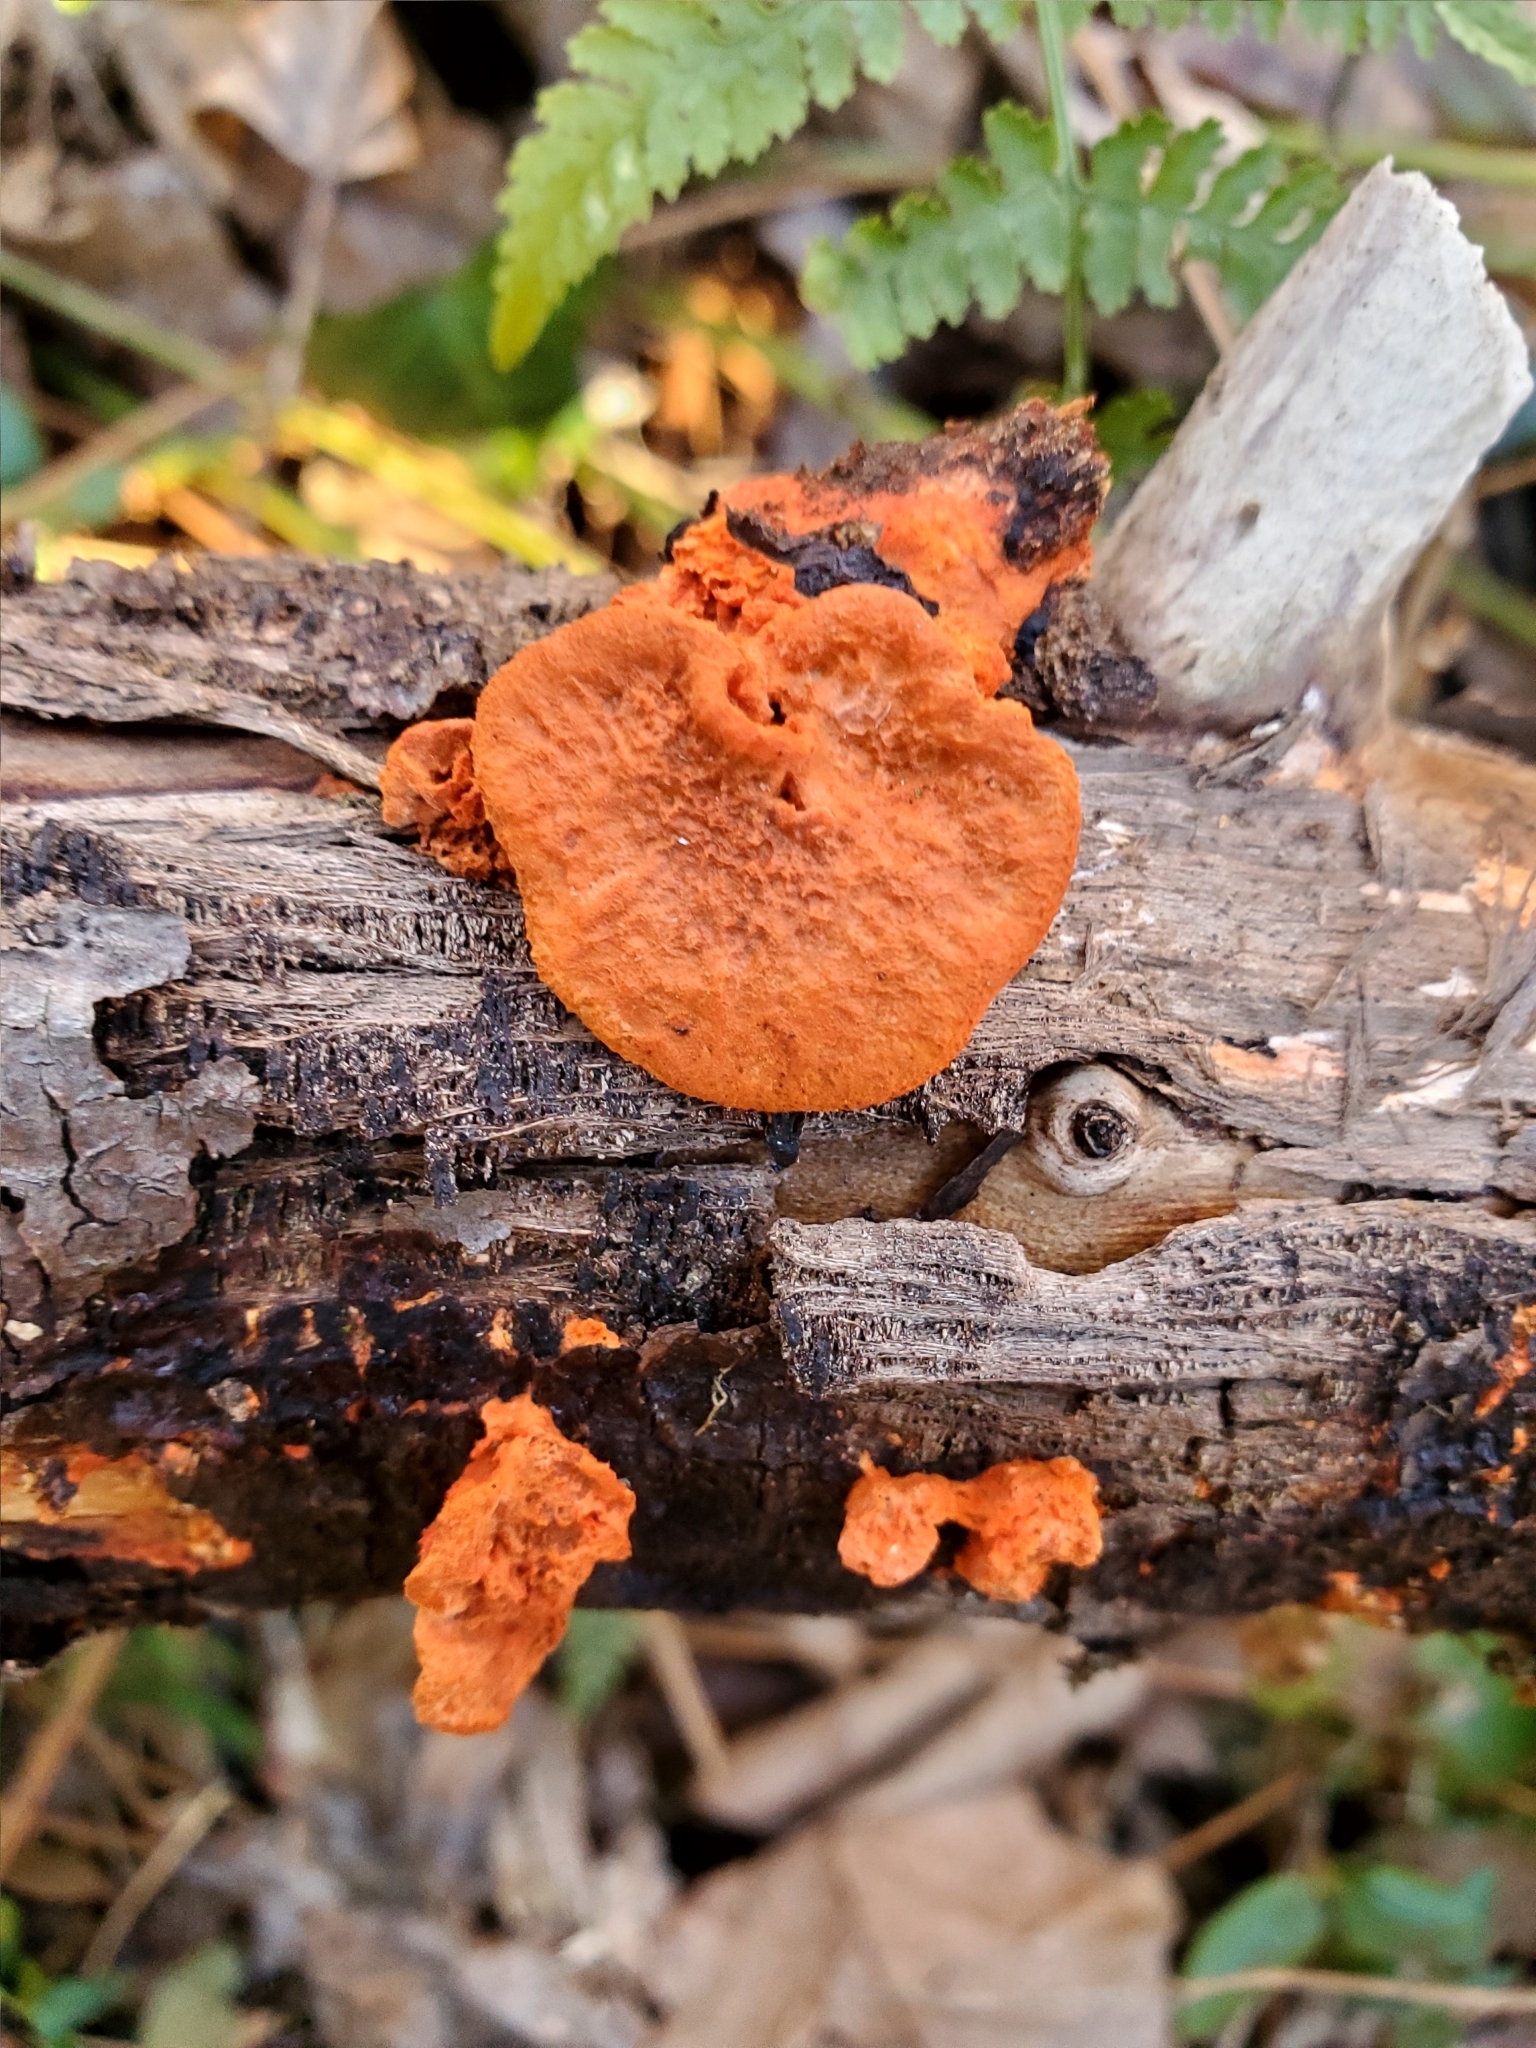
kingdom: Fungi
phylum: Basidiomycota
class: Agaricomycetes
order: Polyporales
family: Polyporaceae
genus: Trametes
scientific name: Trametes cinnabarina
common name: Northern cinnabar polypore
